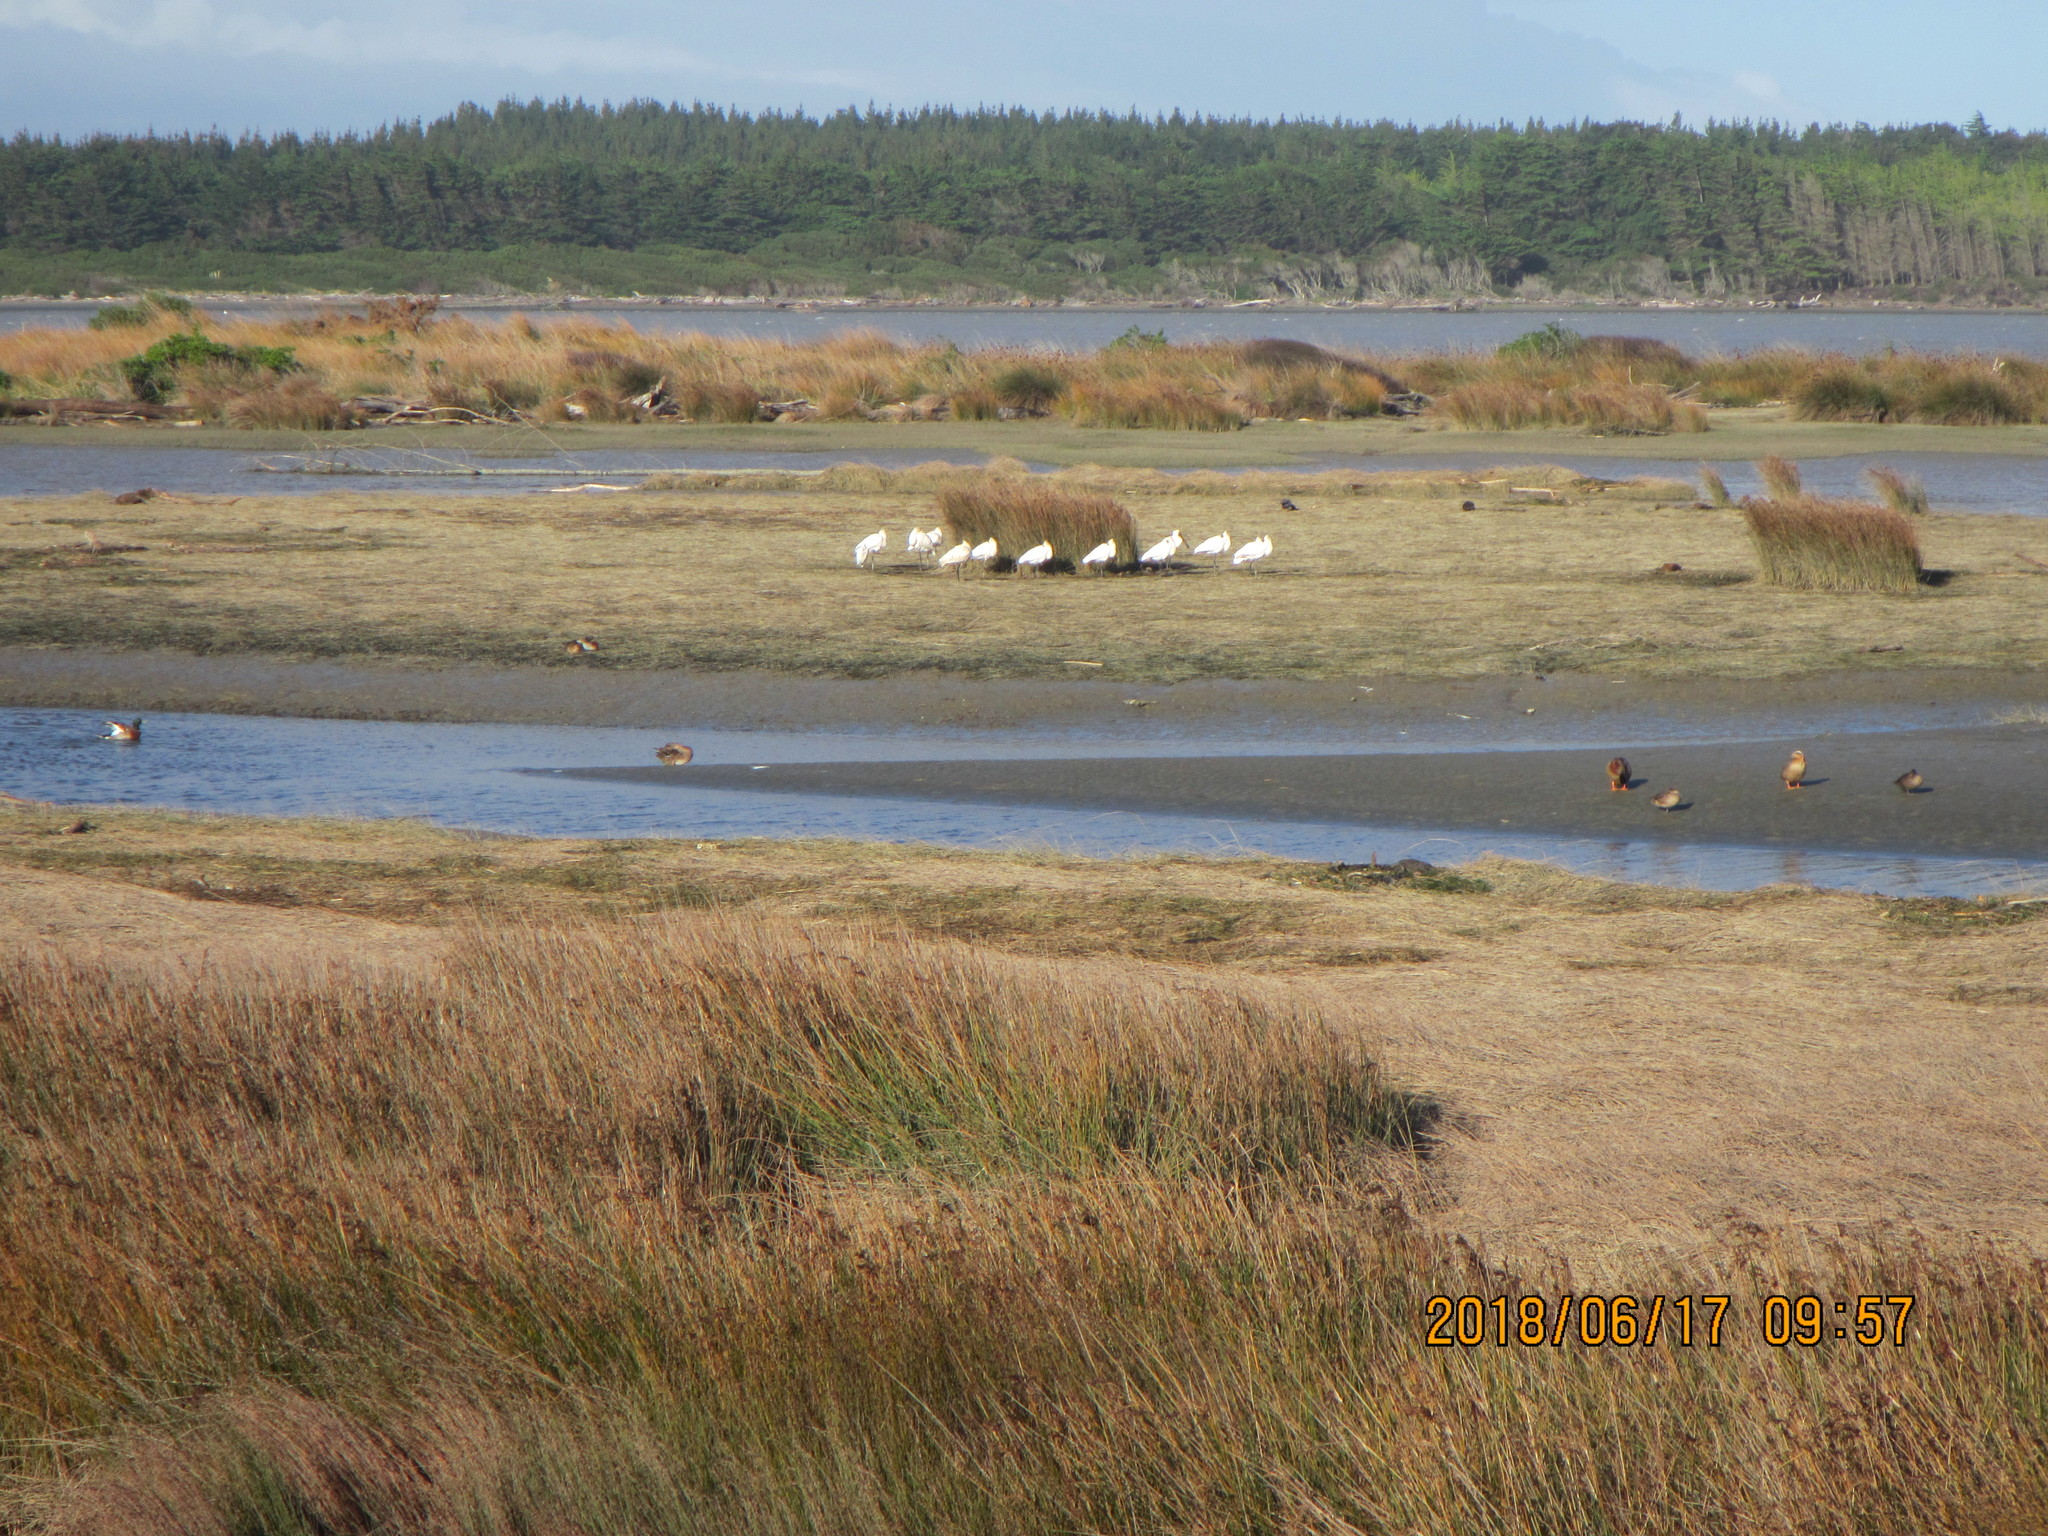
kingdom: Animalia
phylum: Chordata
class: Aves
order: Pelecaniformes
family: Threskiornithidae
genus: Platalea
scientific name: Platalea regia
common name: Royal spoonbill
